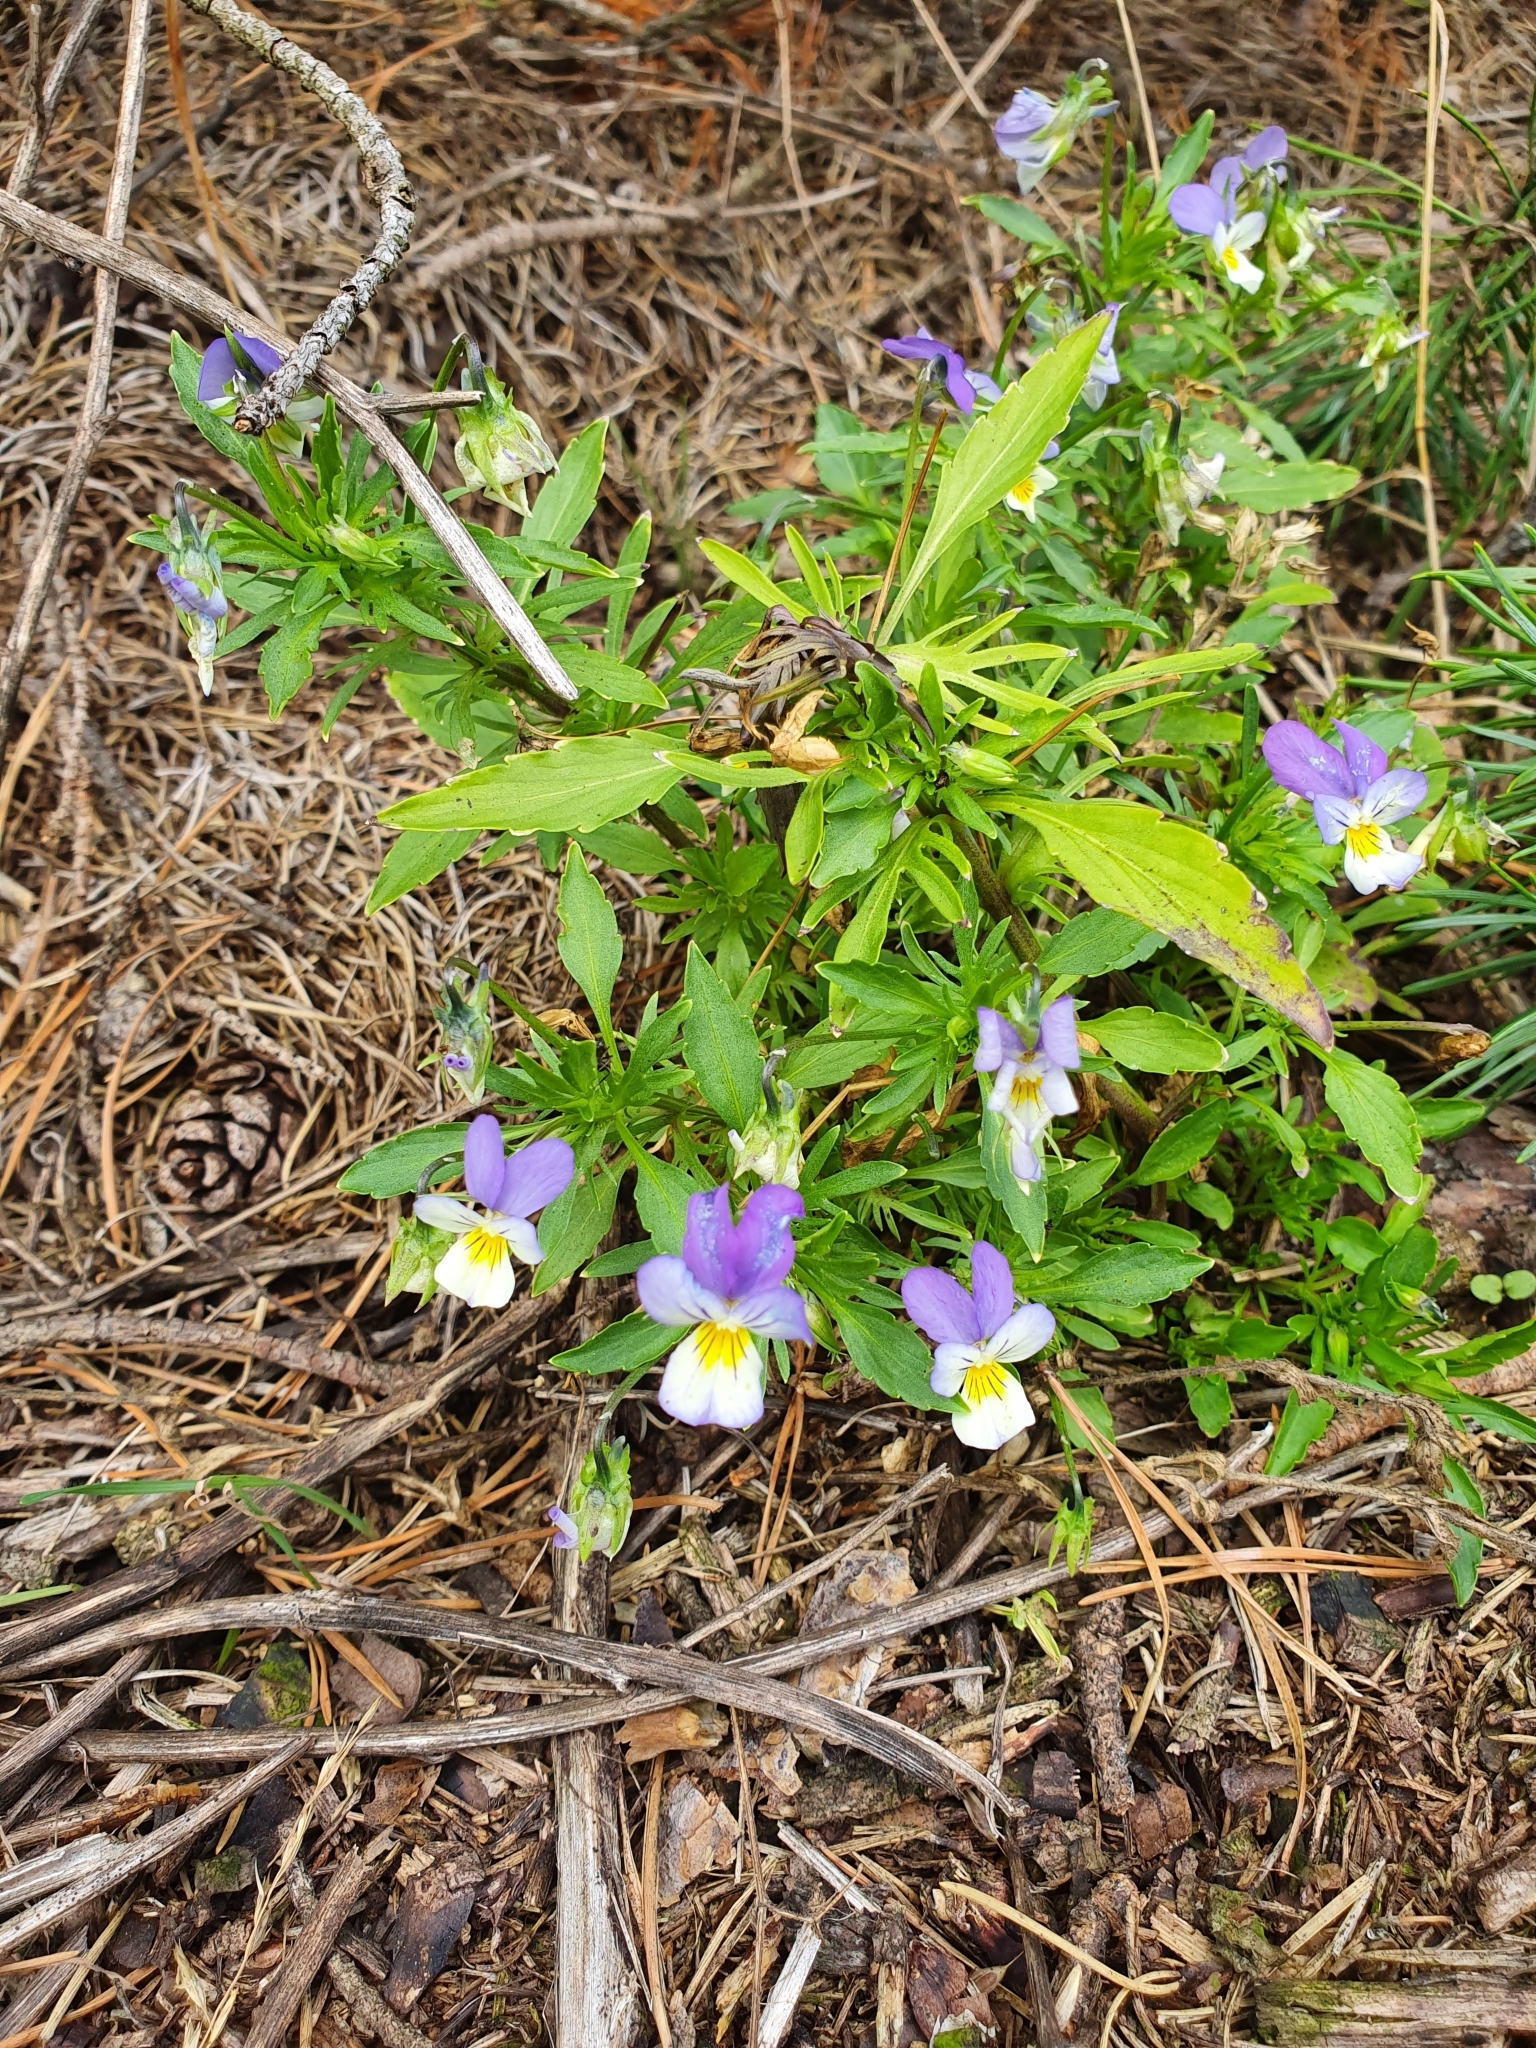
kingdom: Plantae
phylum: Tracheophyta
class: Magnoliopsida
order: Malpighiales
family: Violaceae
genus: Viola
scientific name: Viola tricolor
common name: Pansy
